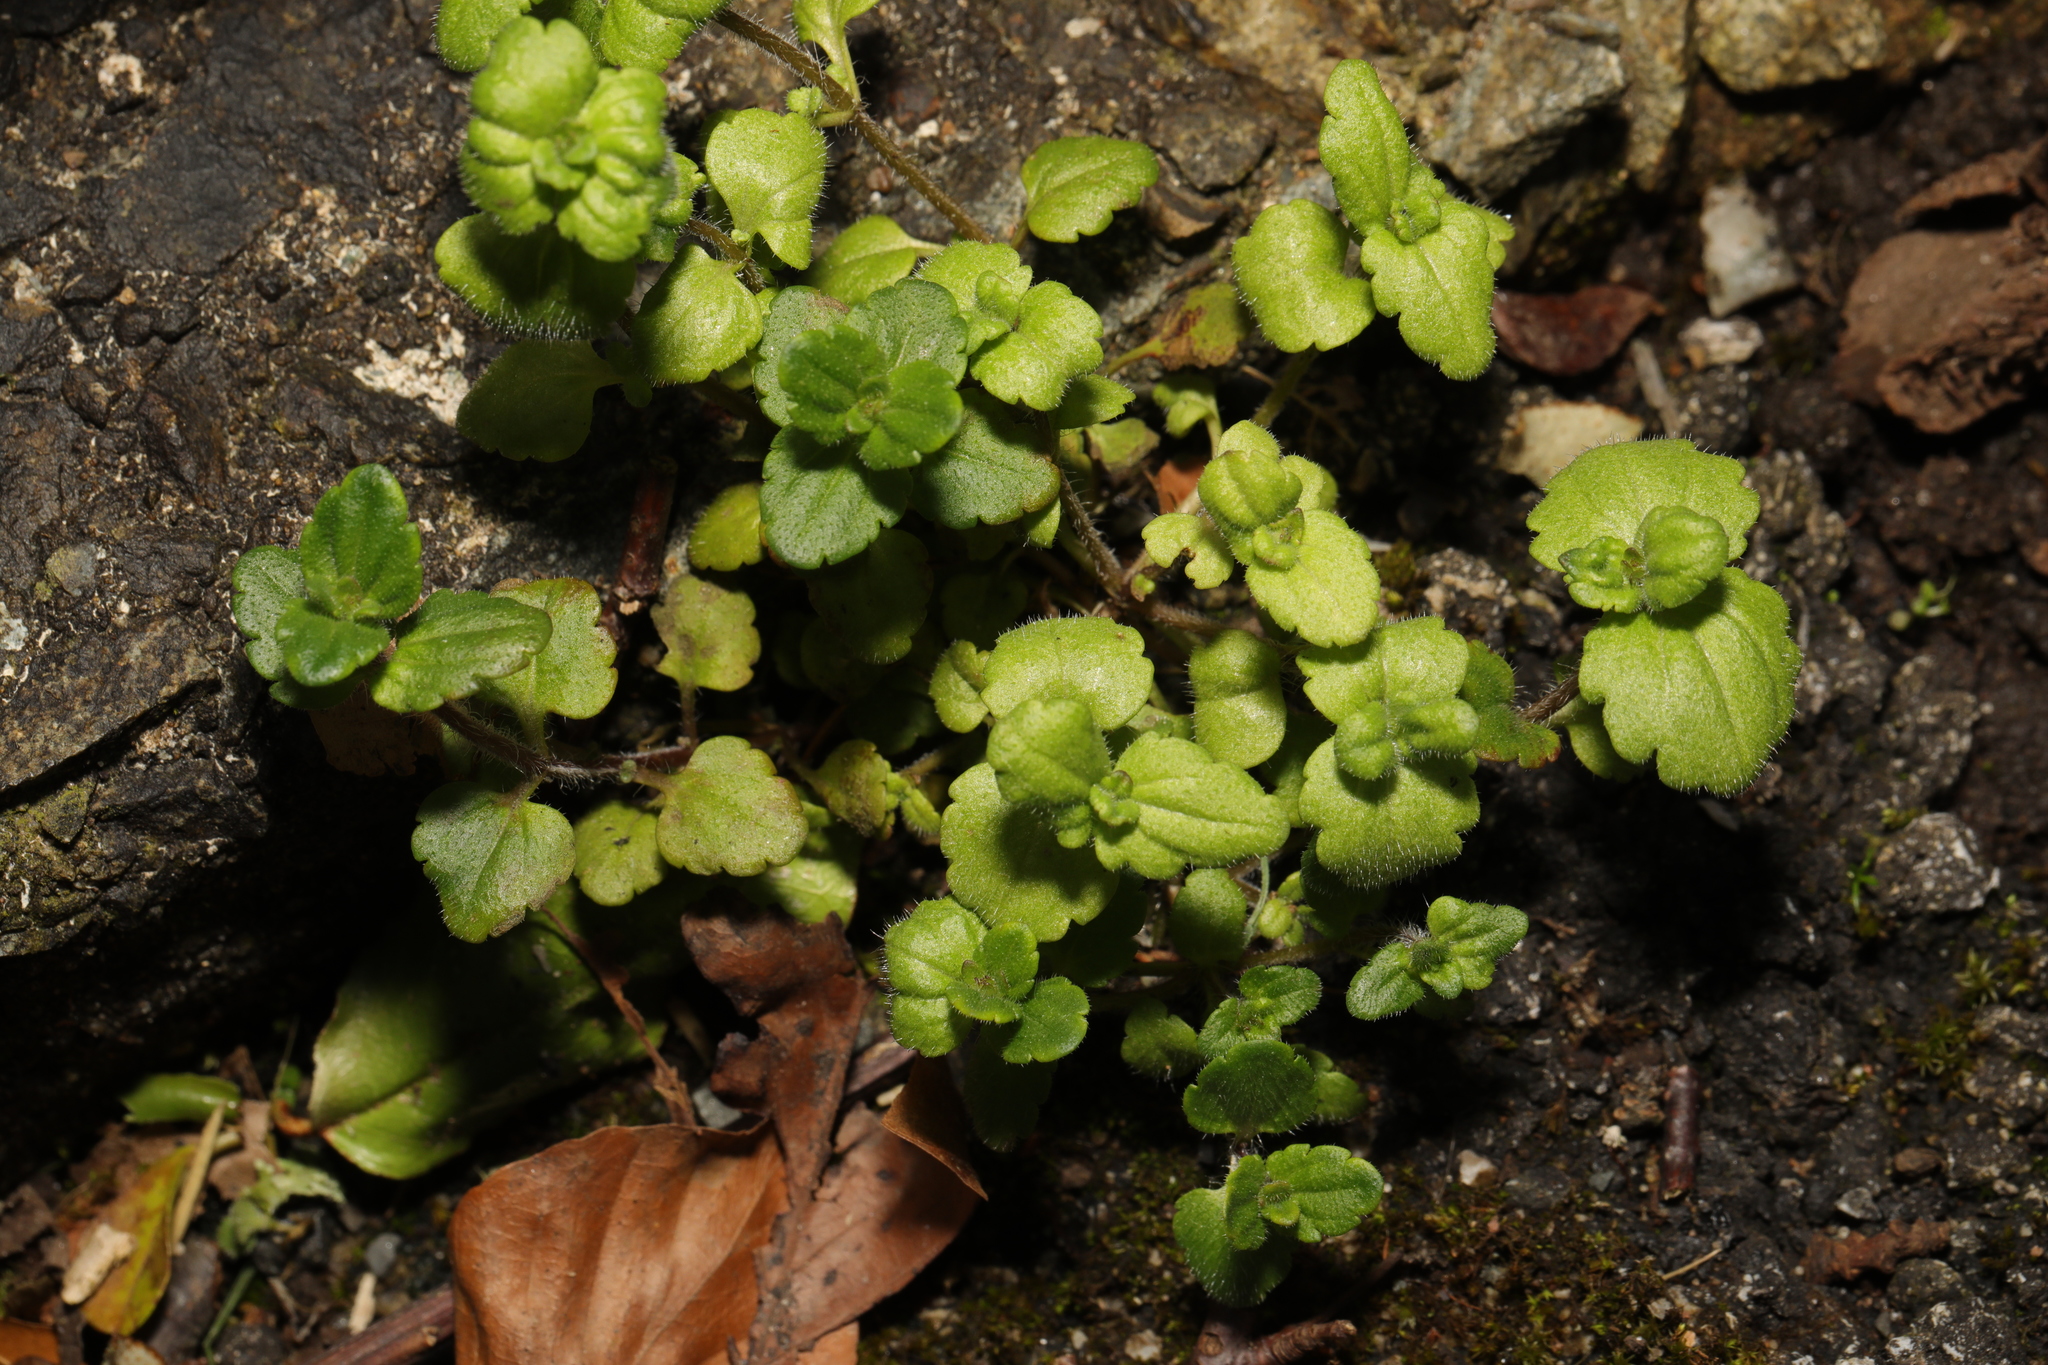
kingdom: Plantae
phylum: Tracheophyta
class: Magnoliopsida
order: Lamiales
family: Plantaginaceae
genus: Veronica
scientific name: Veronica arvensis
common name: Corn speedwell
